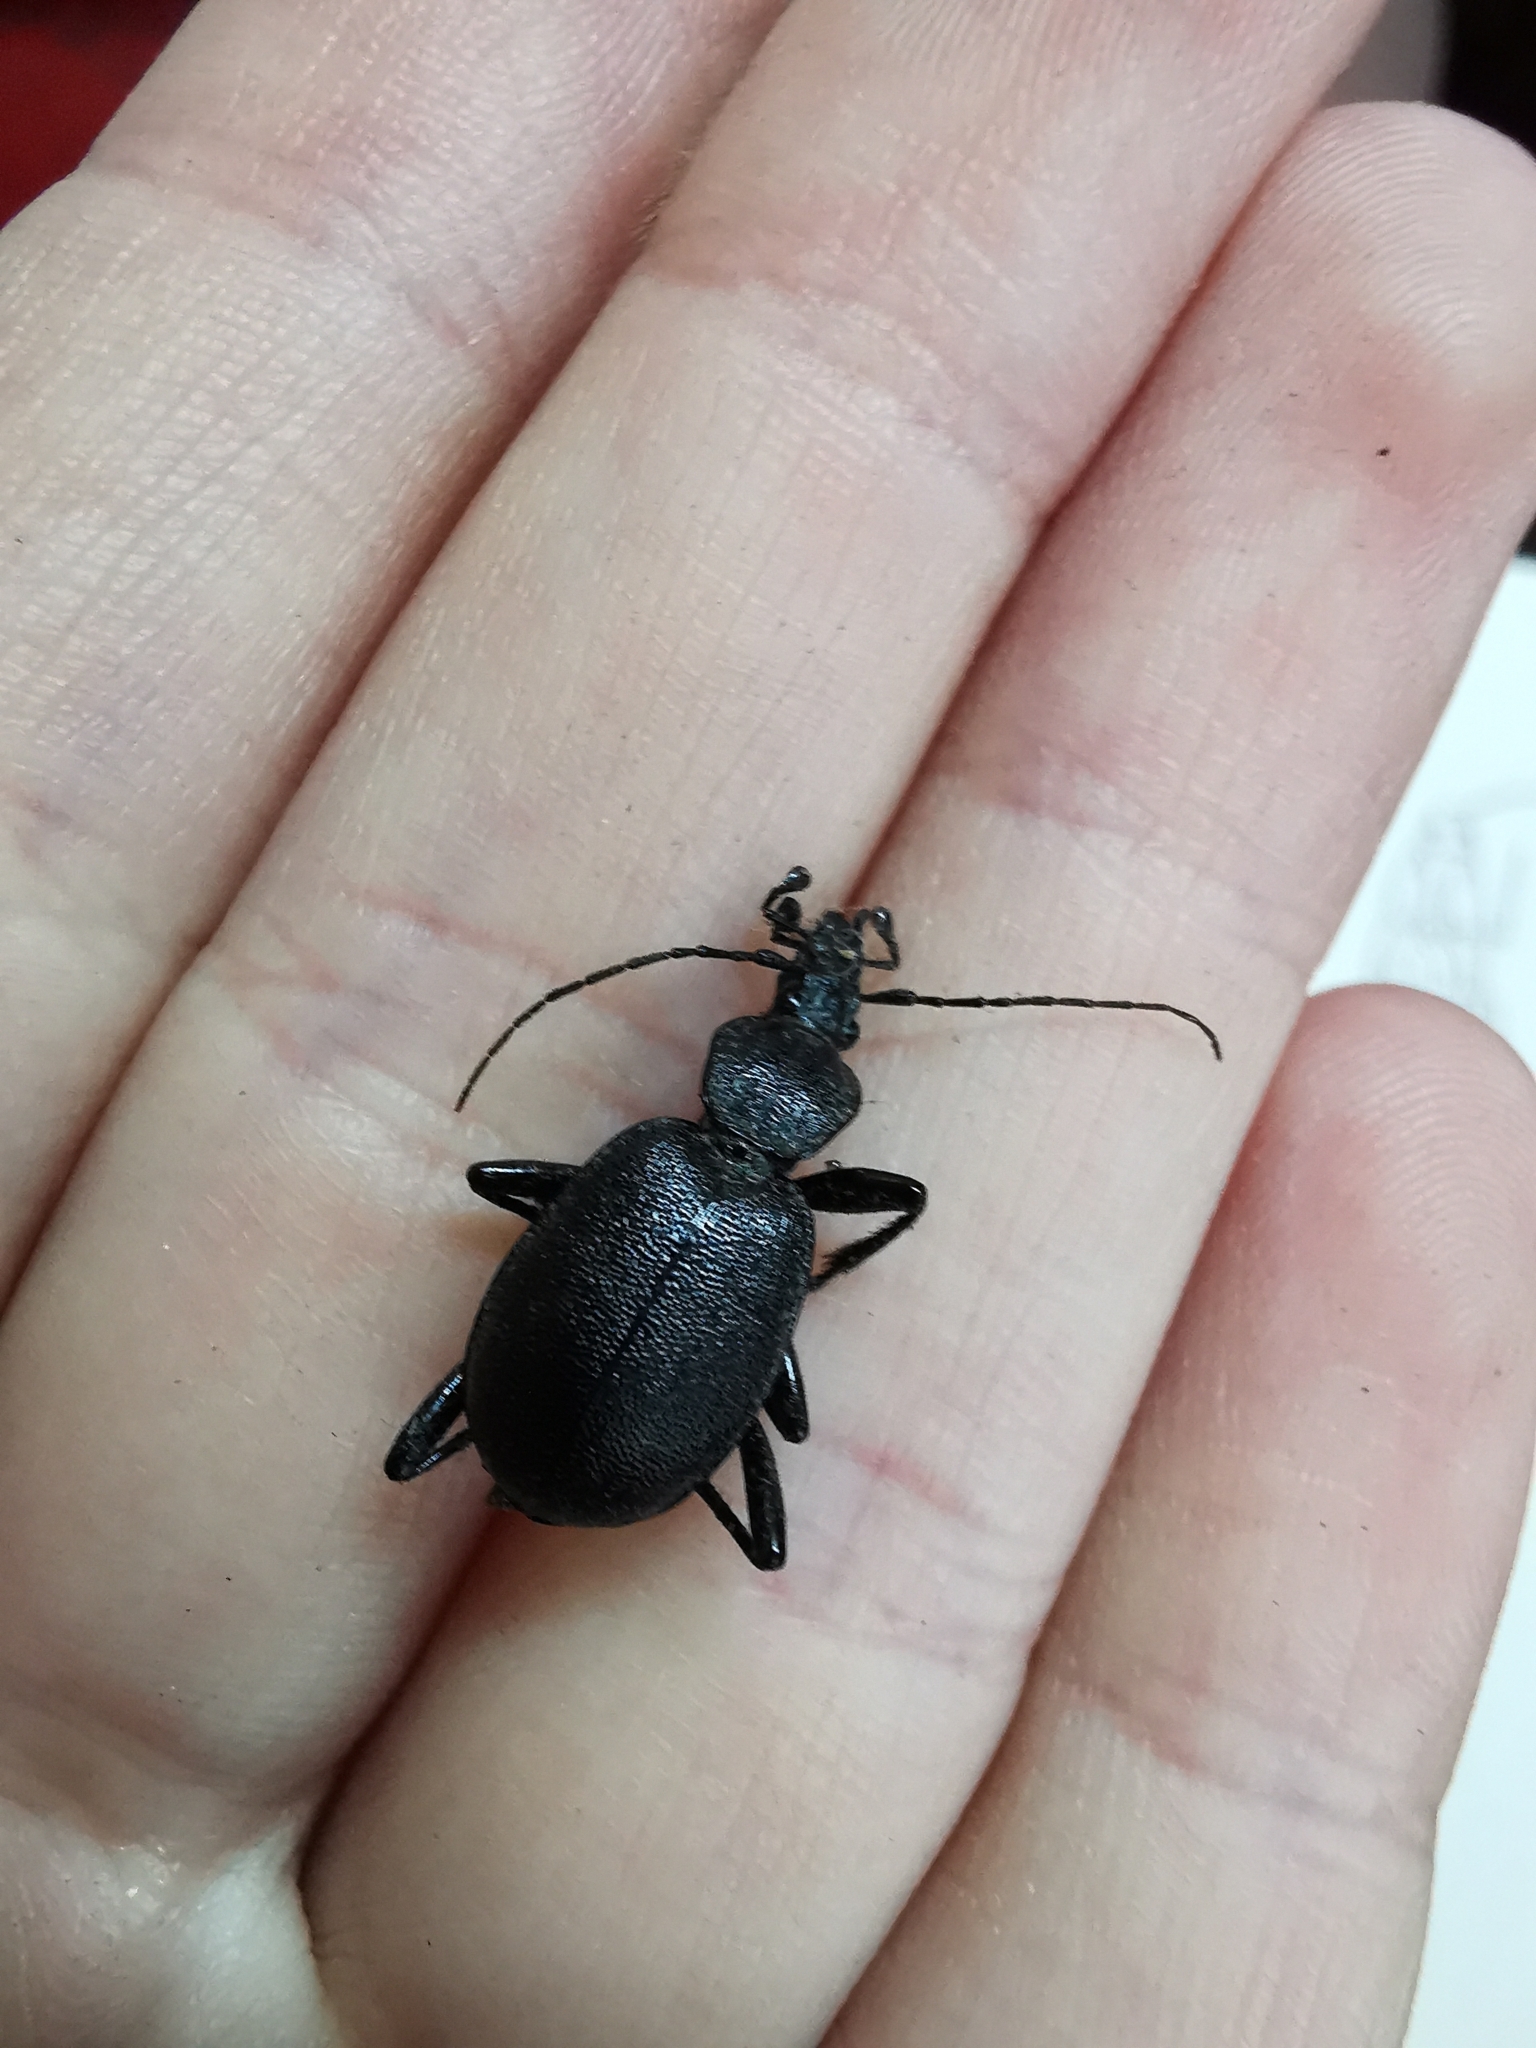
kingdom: Animalia
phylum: Arthropoda
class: Insecta
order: Coleoptera
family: Carabidae
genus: Cychrus
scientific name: Cychrus caraboides
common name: Snail hunter
